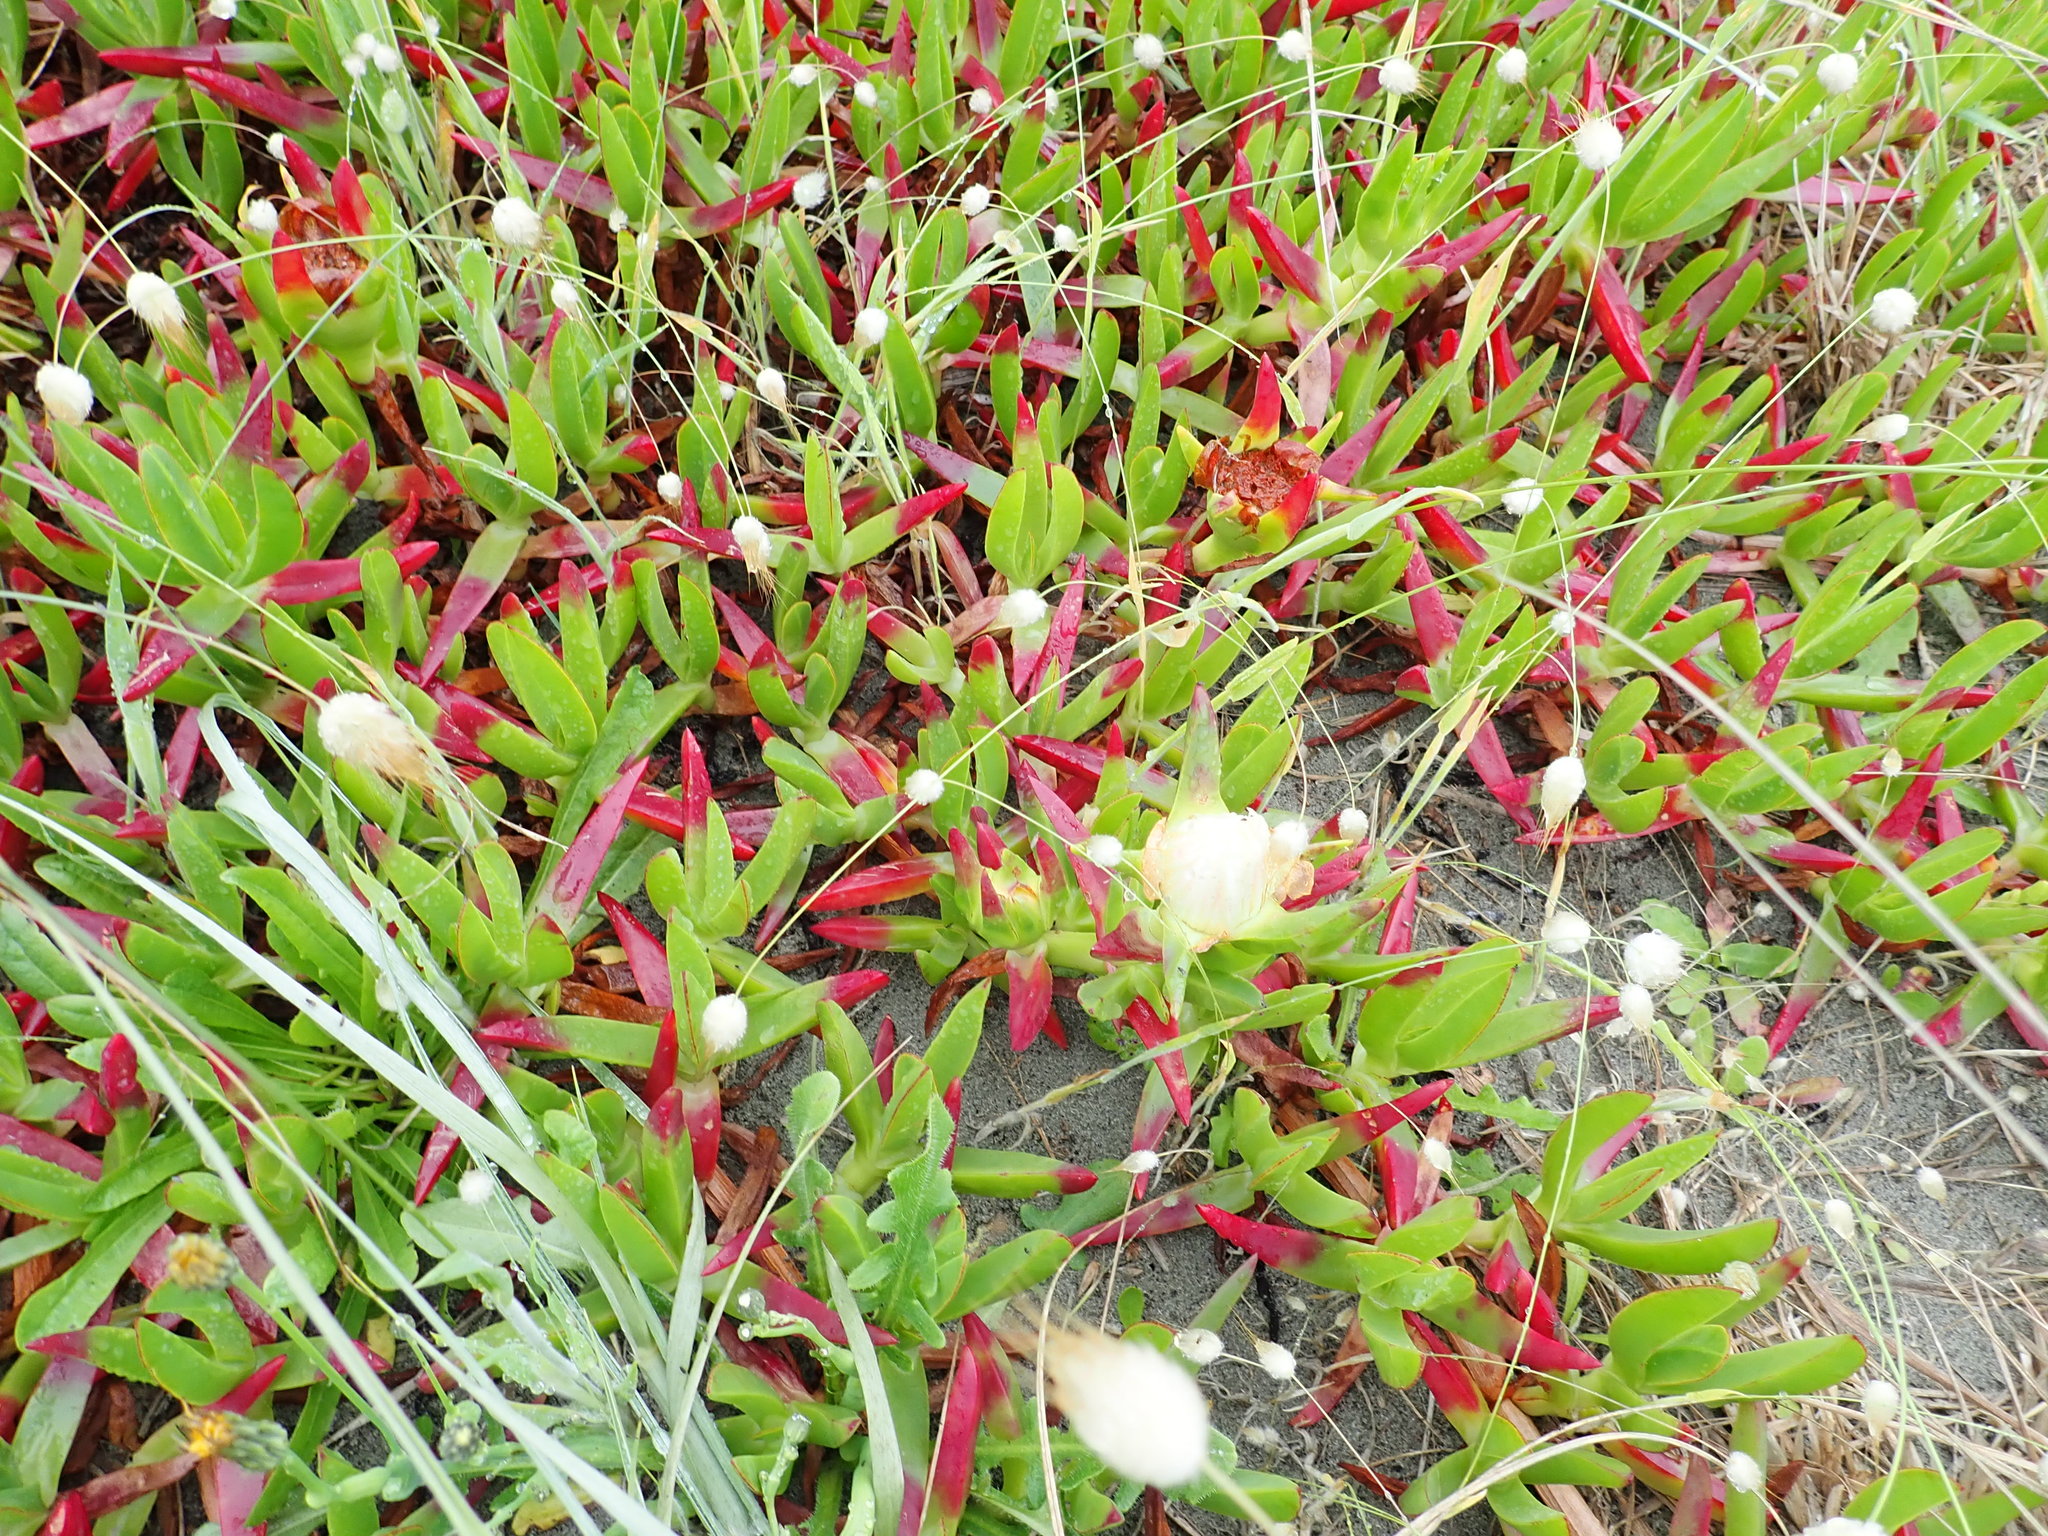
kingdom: Plantae
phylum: Tracheophyta
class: Magnoliopsida
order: Caryophyllales
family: Aizoaceae
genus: Carpobrotus
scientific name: Carpobrotus edulis
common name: Hottentot-fig
